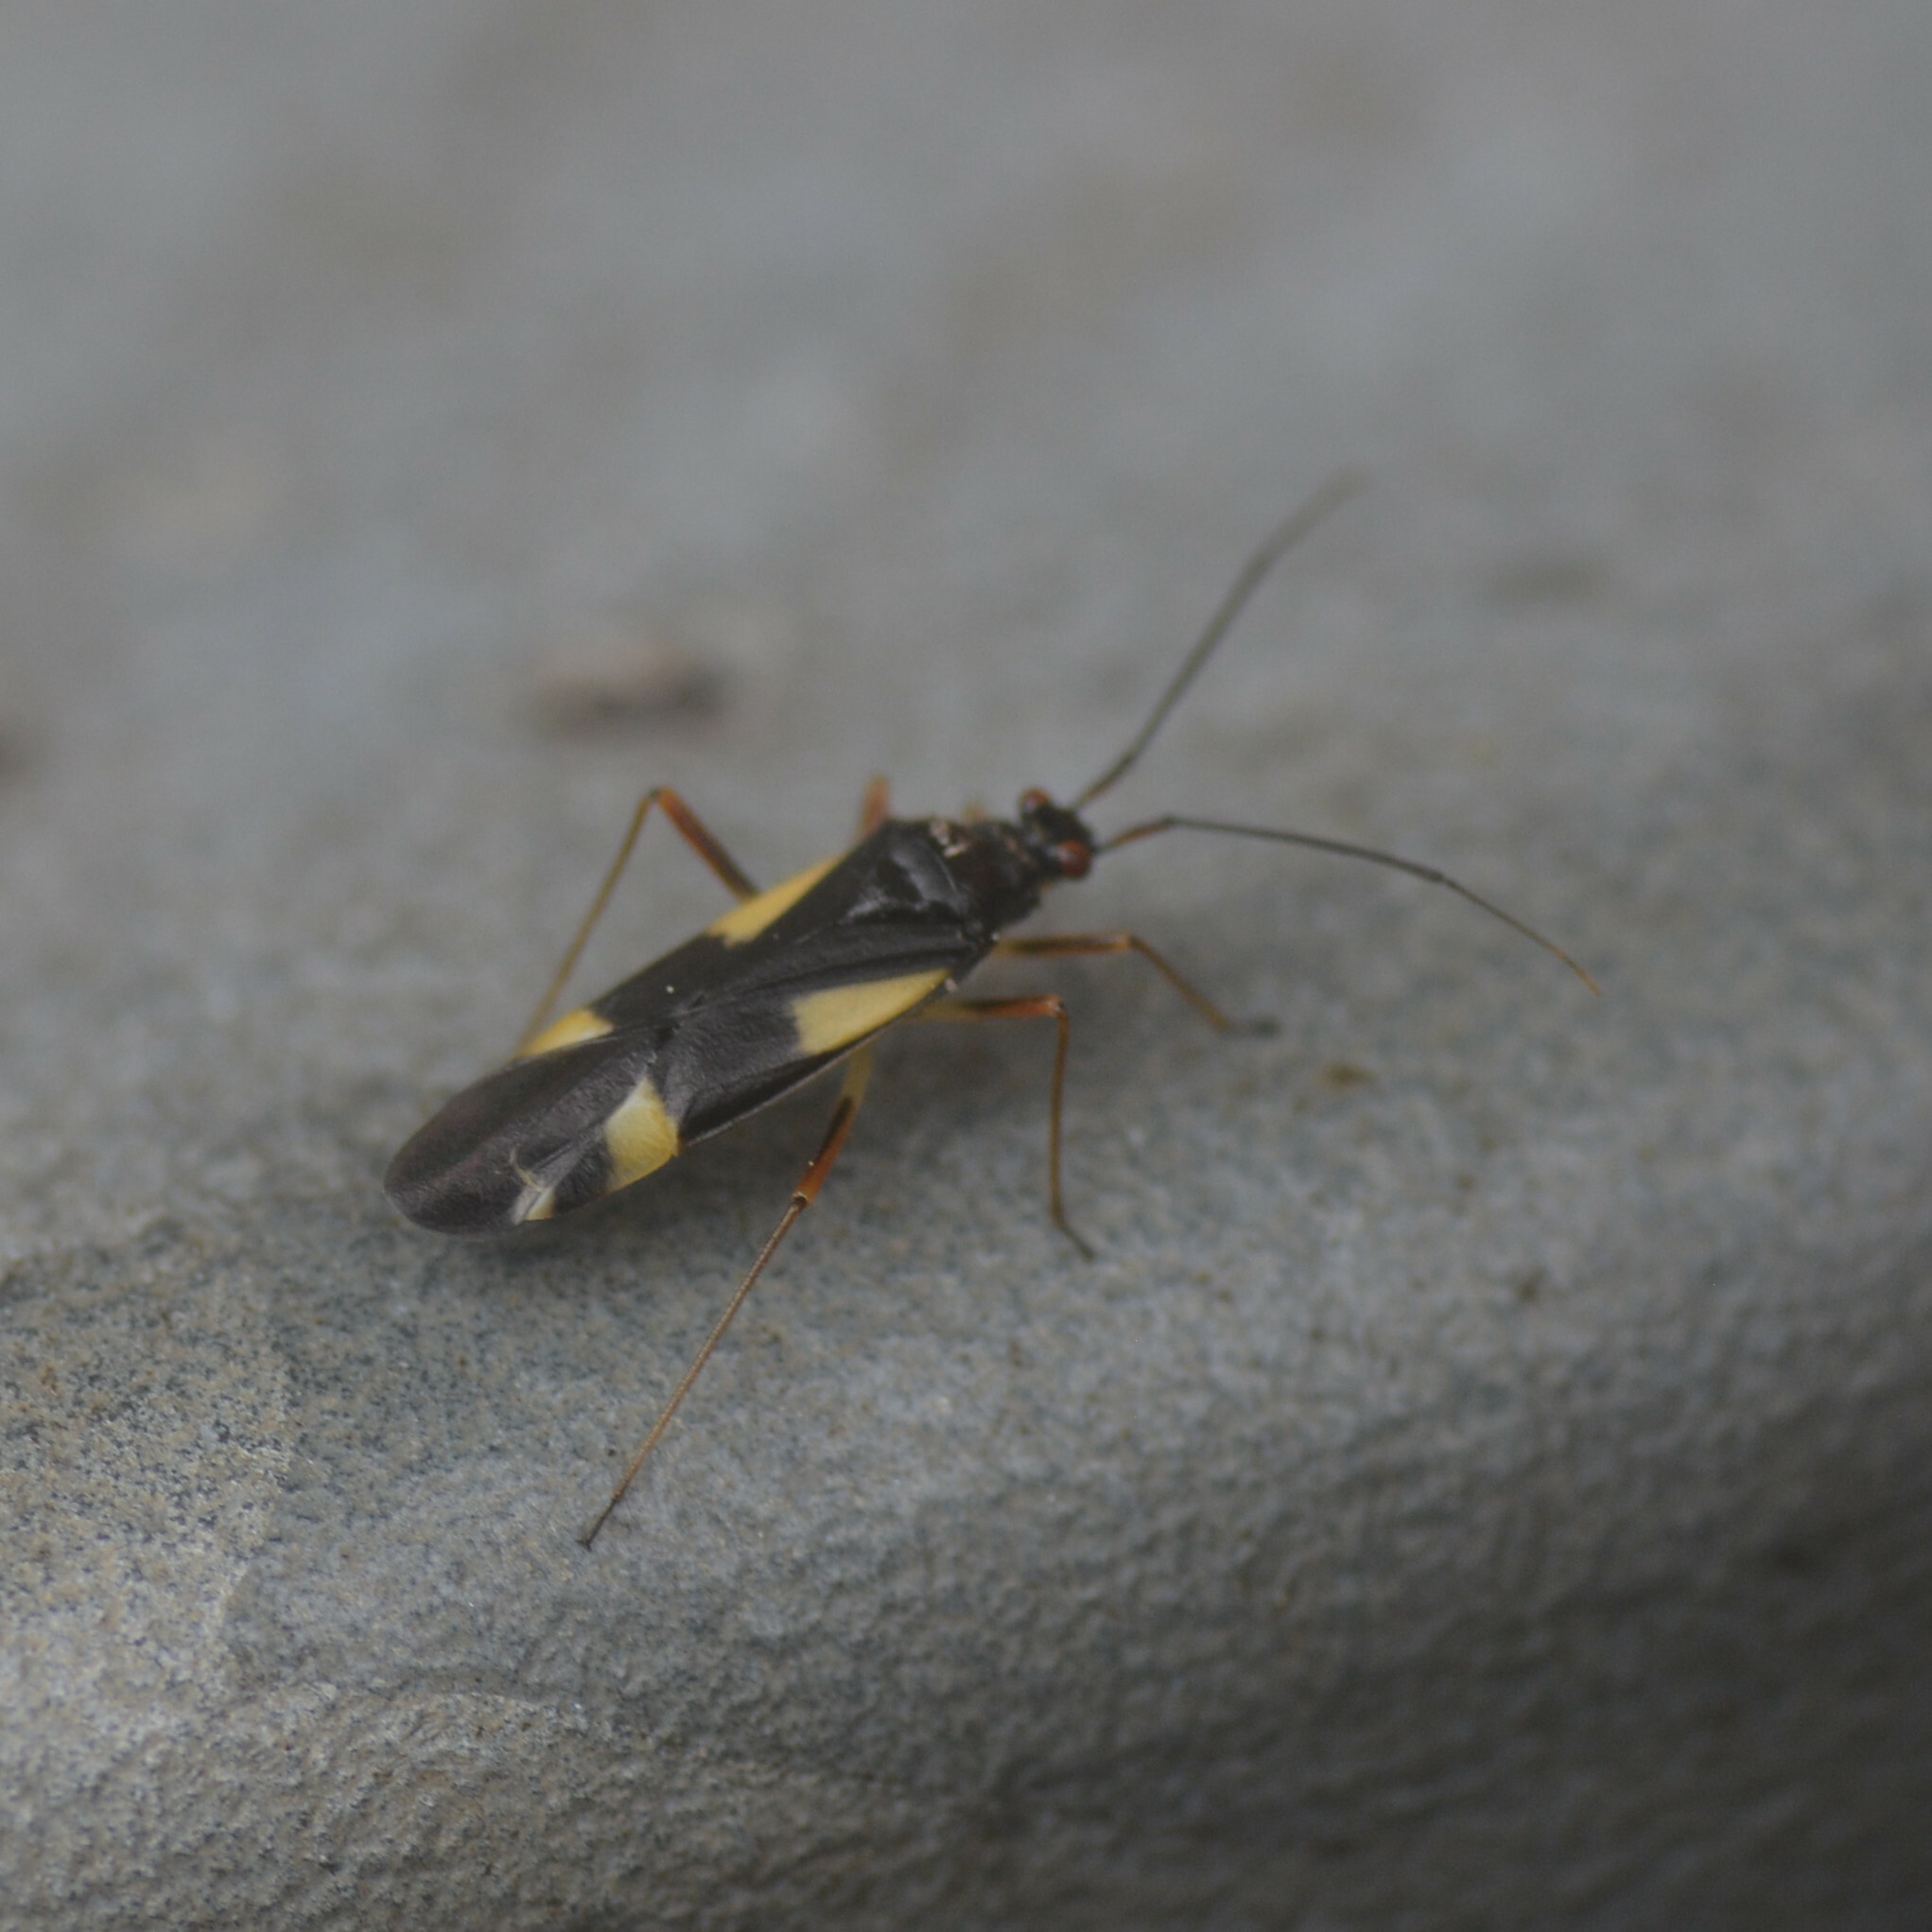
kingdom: Animalia
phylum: Arthropoda
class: Insecta
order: Hemiptera
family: Miridae
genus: Dryophilocoris
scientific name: Dryophilocoris flavoquadrimaculatus
